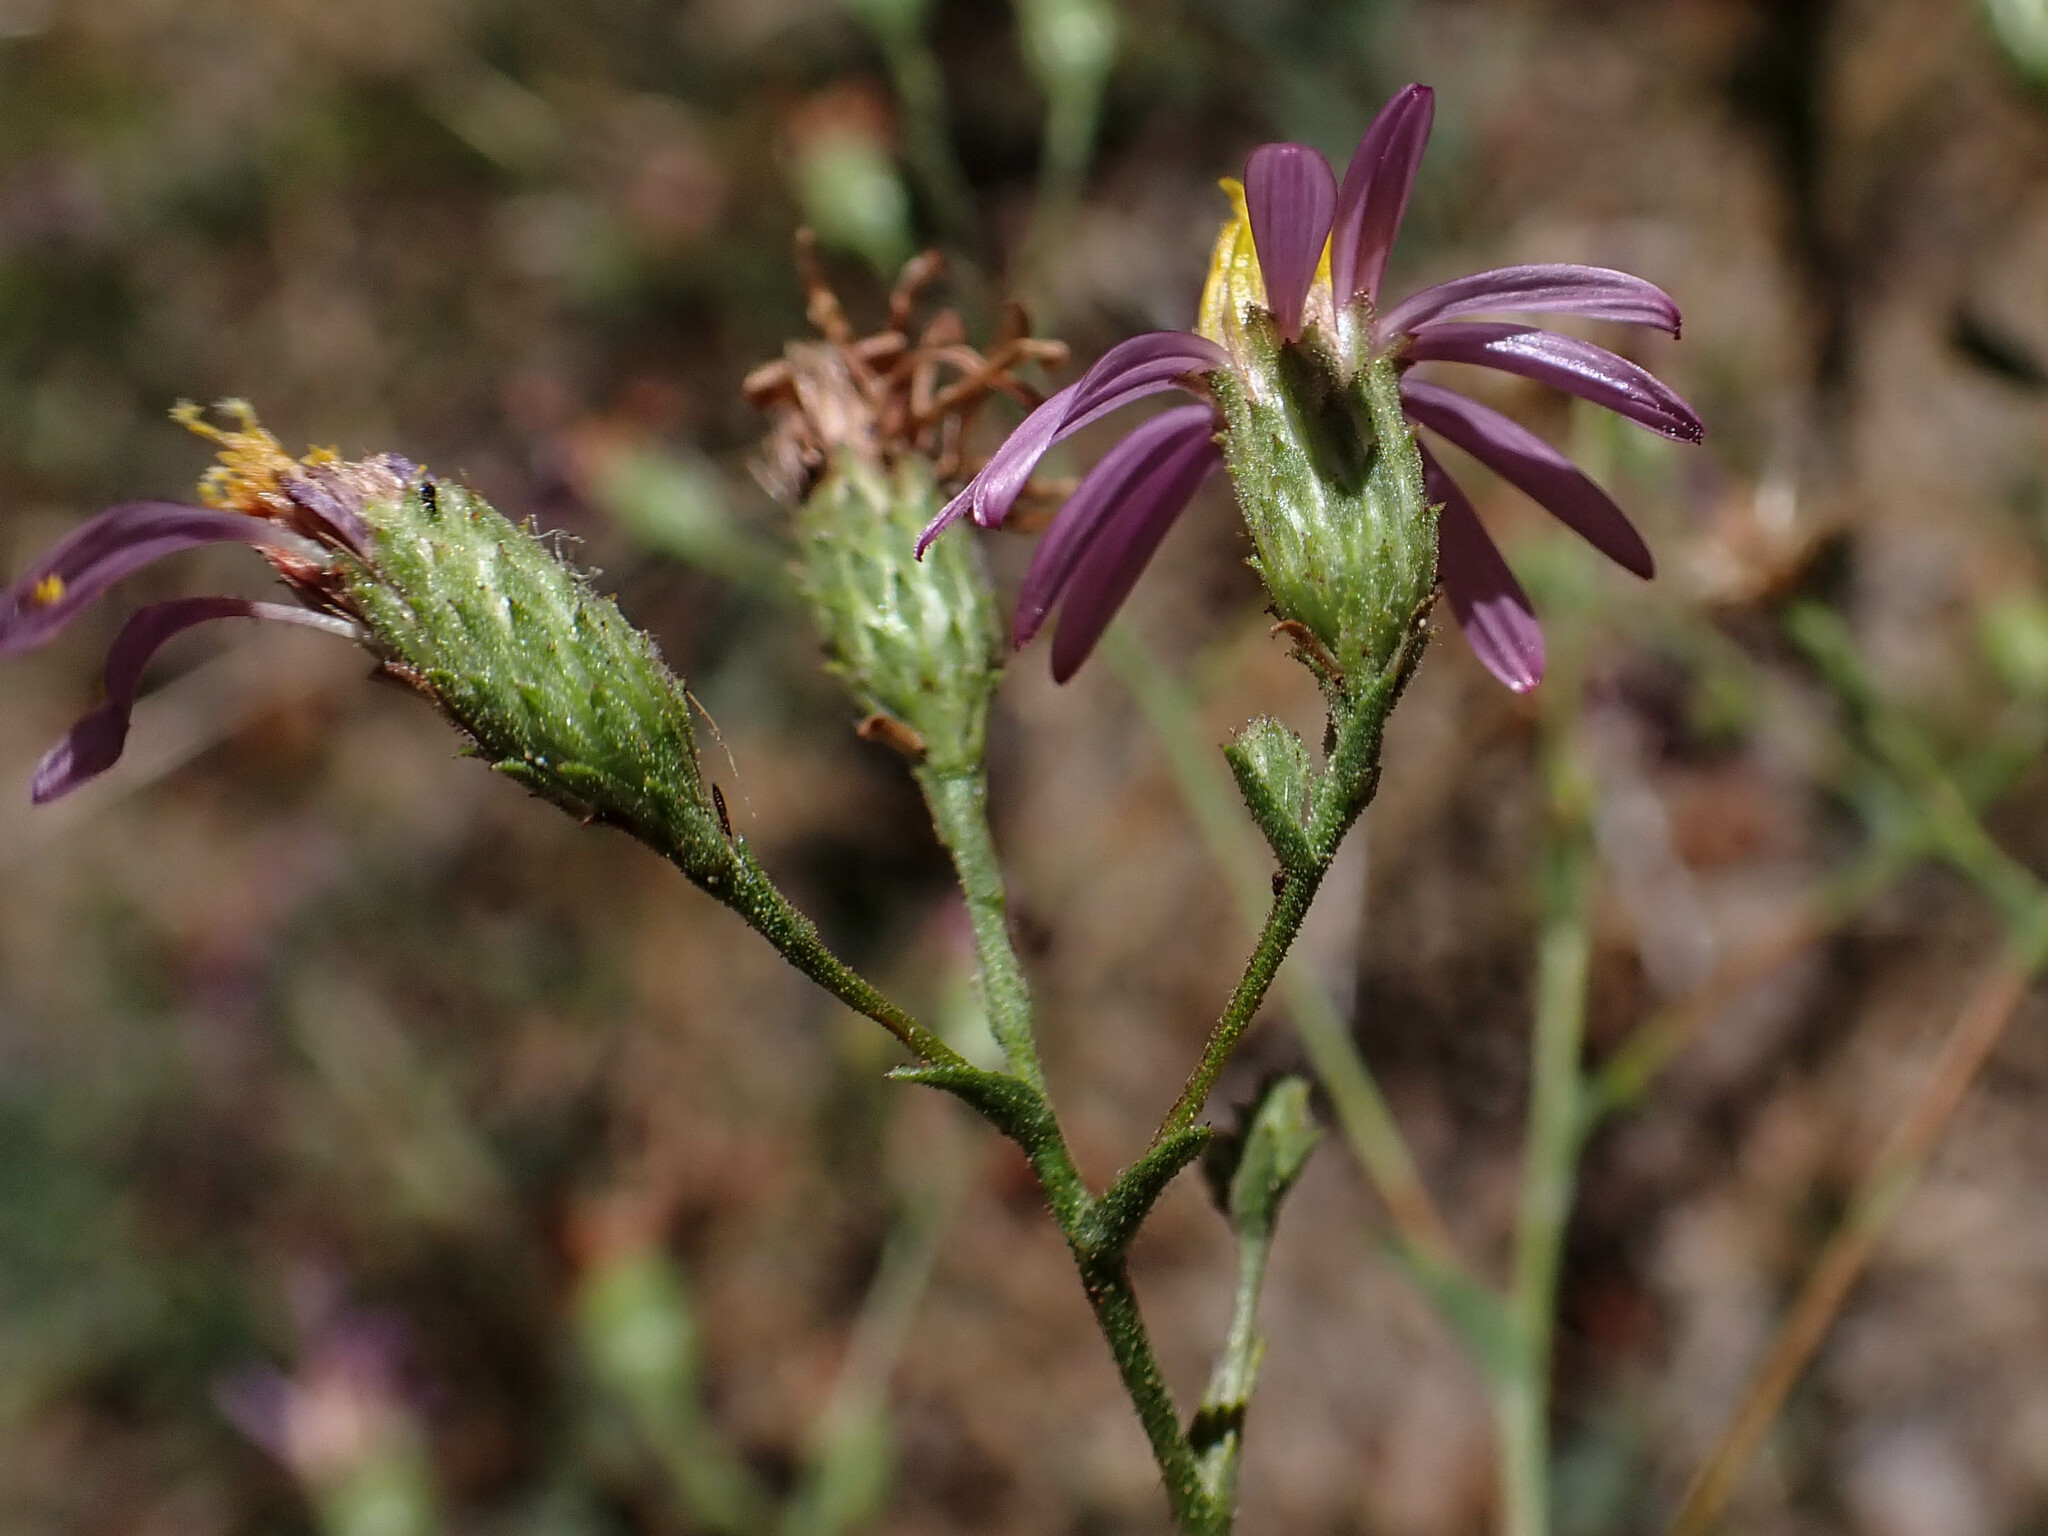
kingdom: Plantae
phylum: Tracheophyta
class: Magnoliopsida
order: Asterales
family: Asteraceae
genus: Corethrogyne
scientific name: Corethrogyne filaginifolia
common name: Sand-aster
